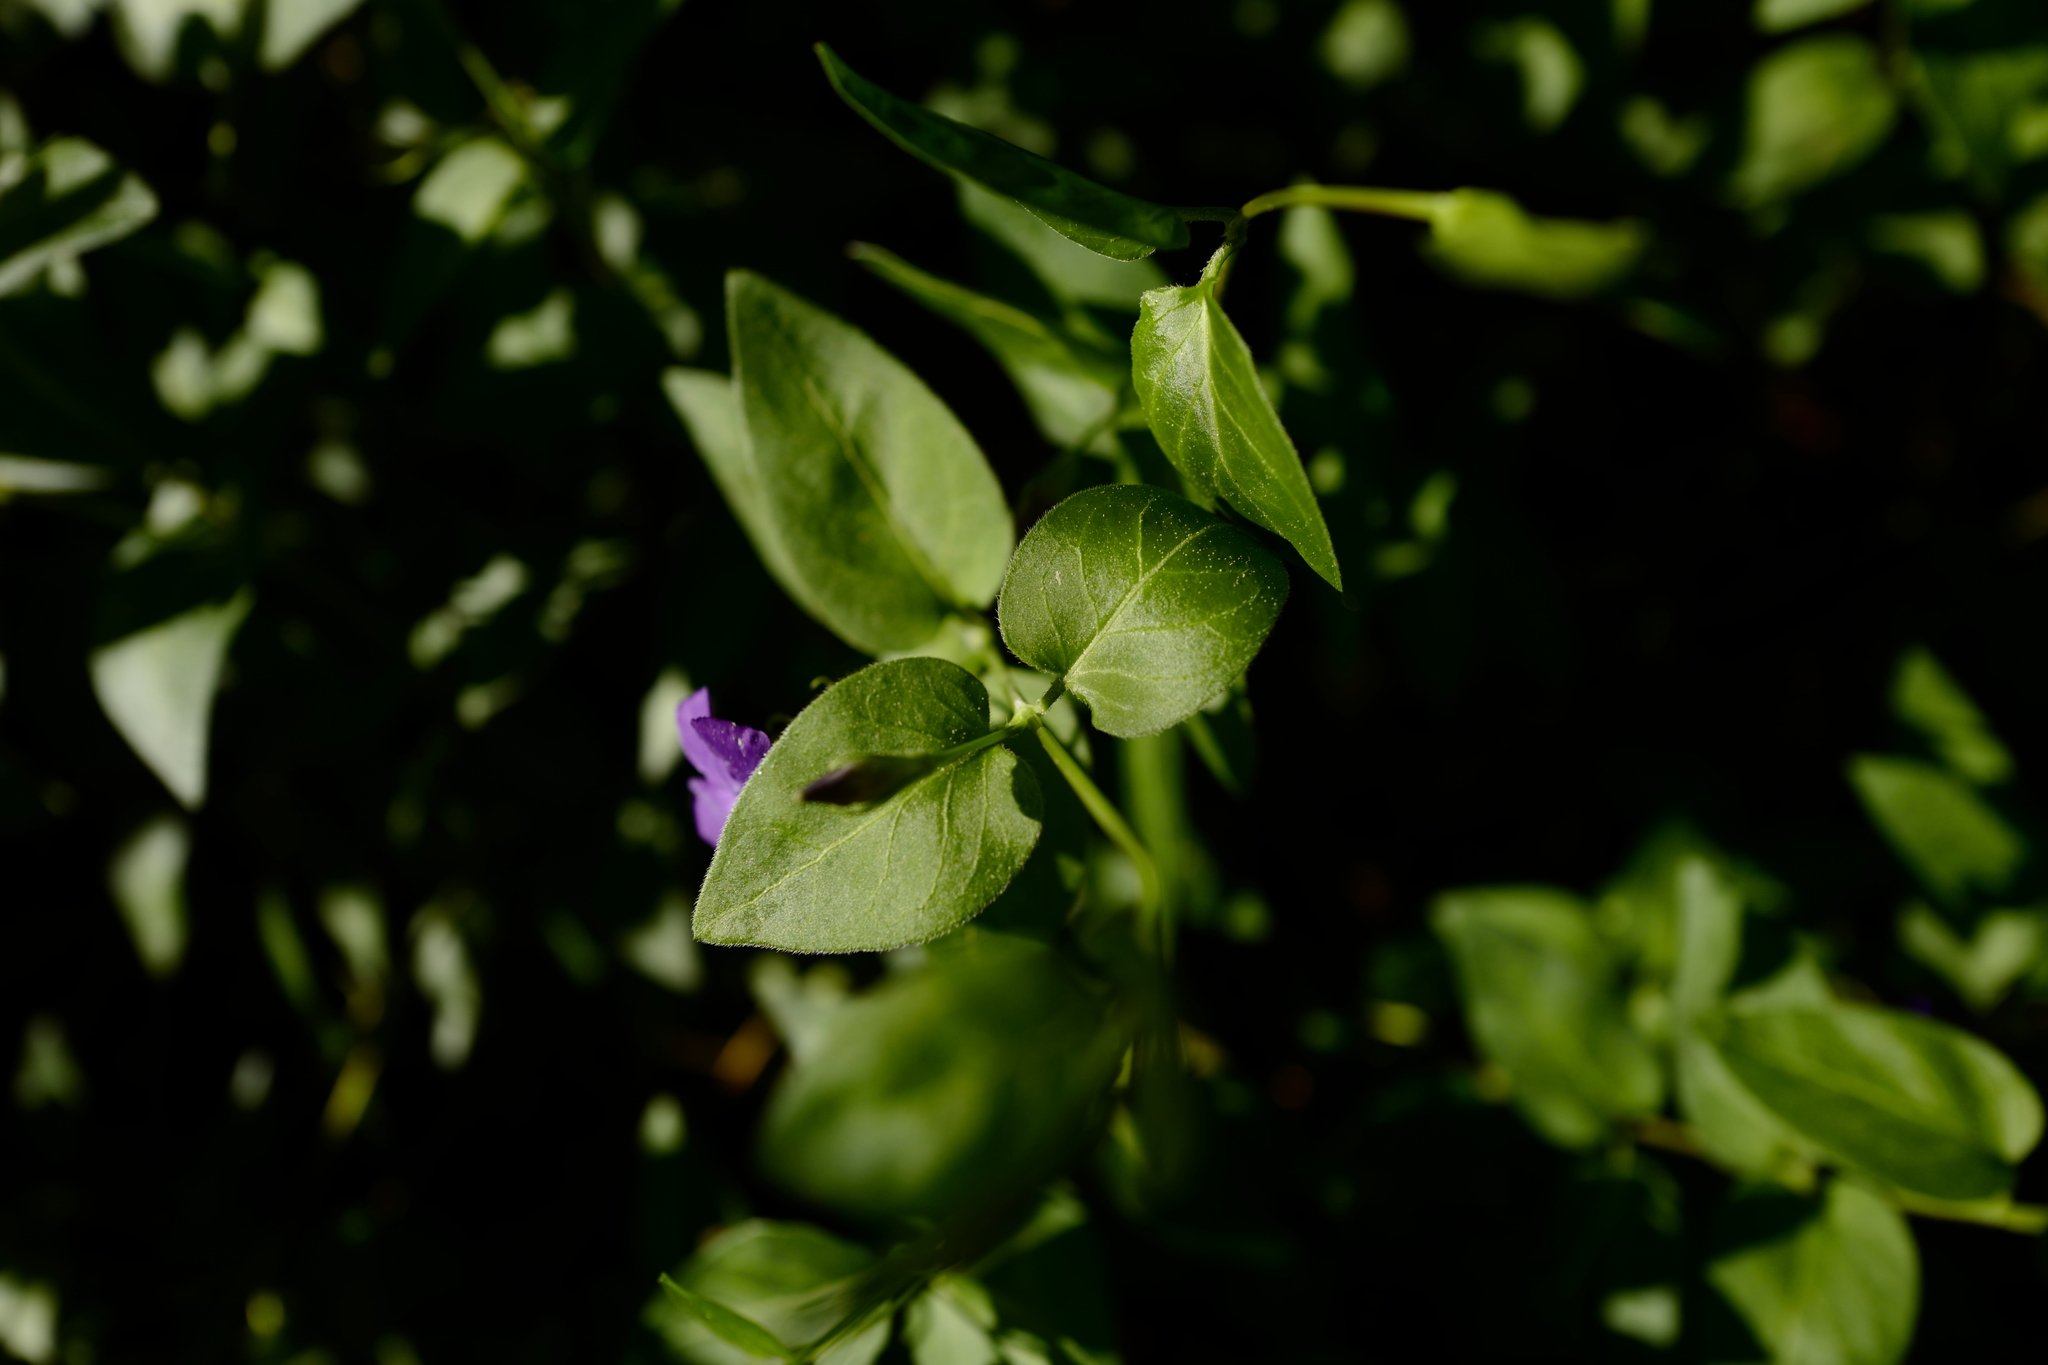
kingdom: Plantae
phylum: Tracheophyta
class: Magnoliopsida
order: Gentianales
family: Apocynaceae
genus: Vinca
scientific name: Vinca major
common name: Greater periwinkle
